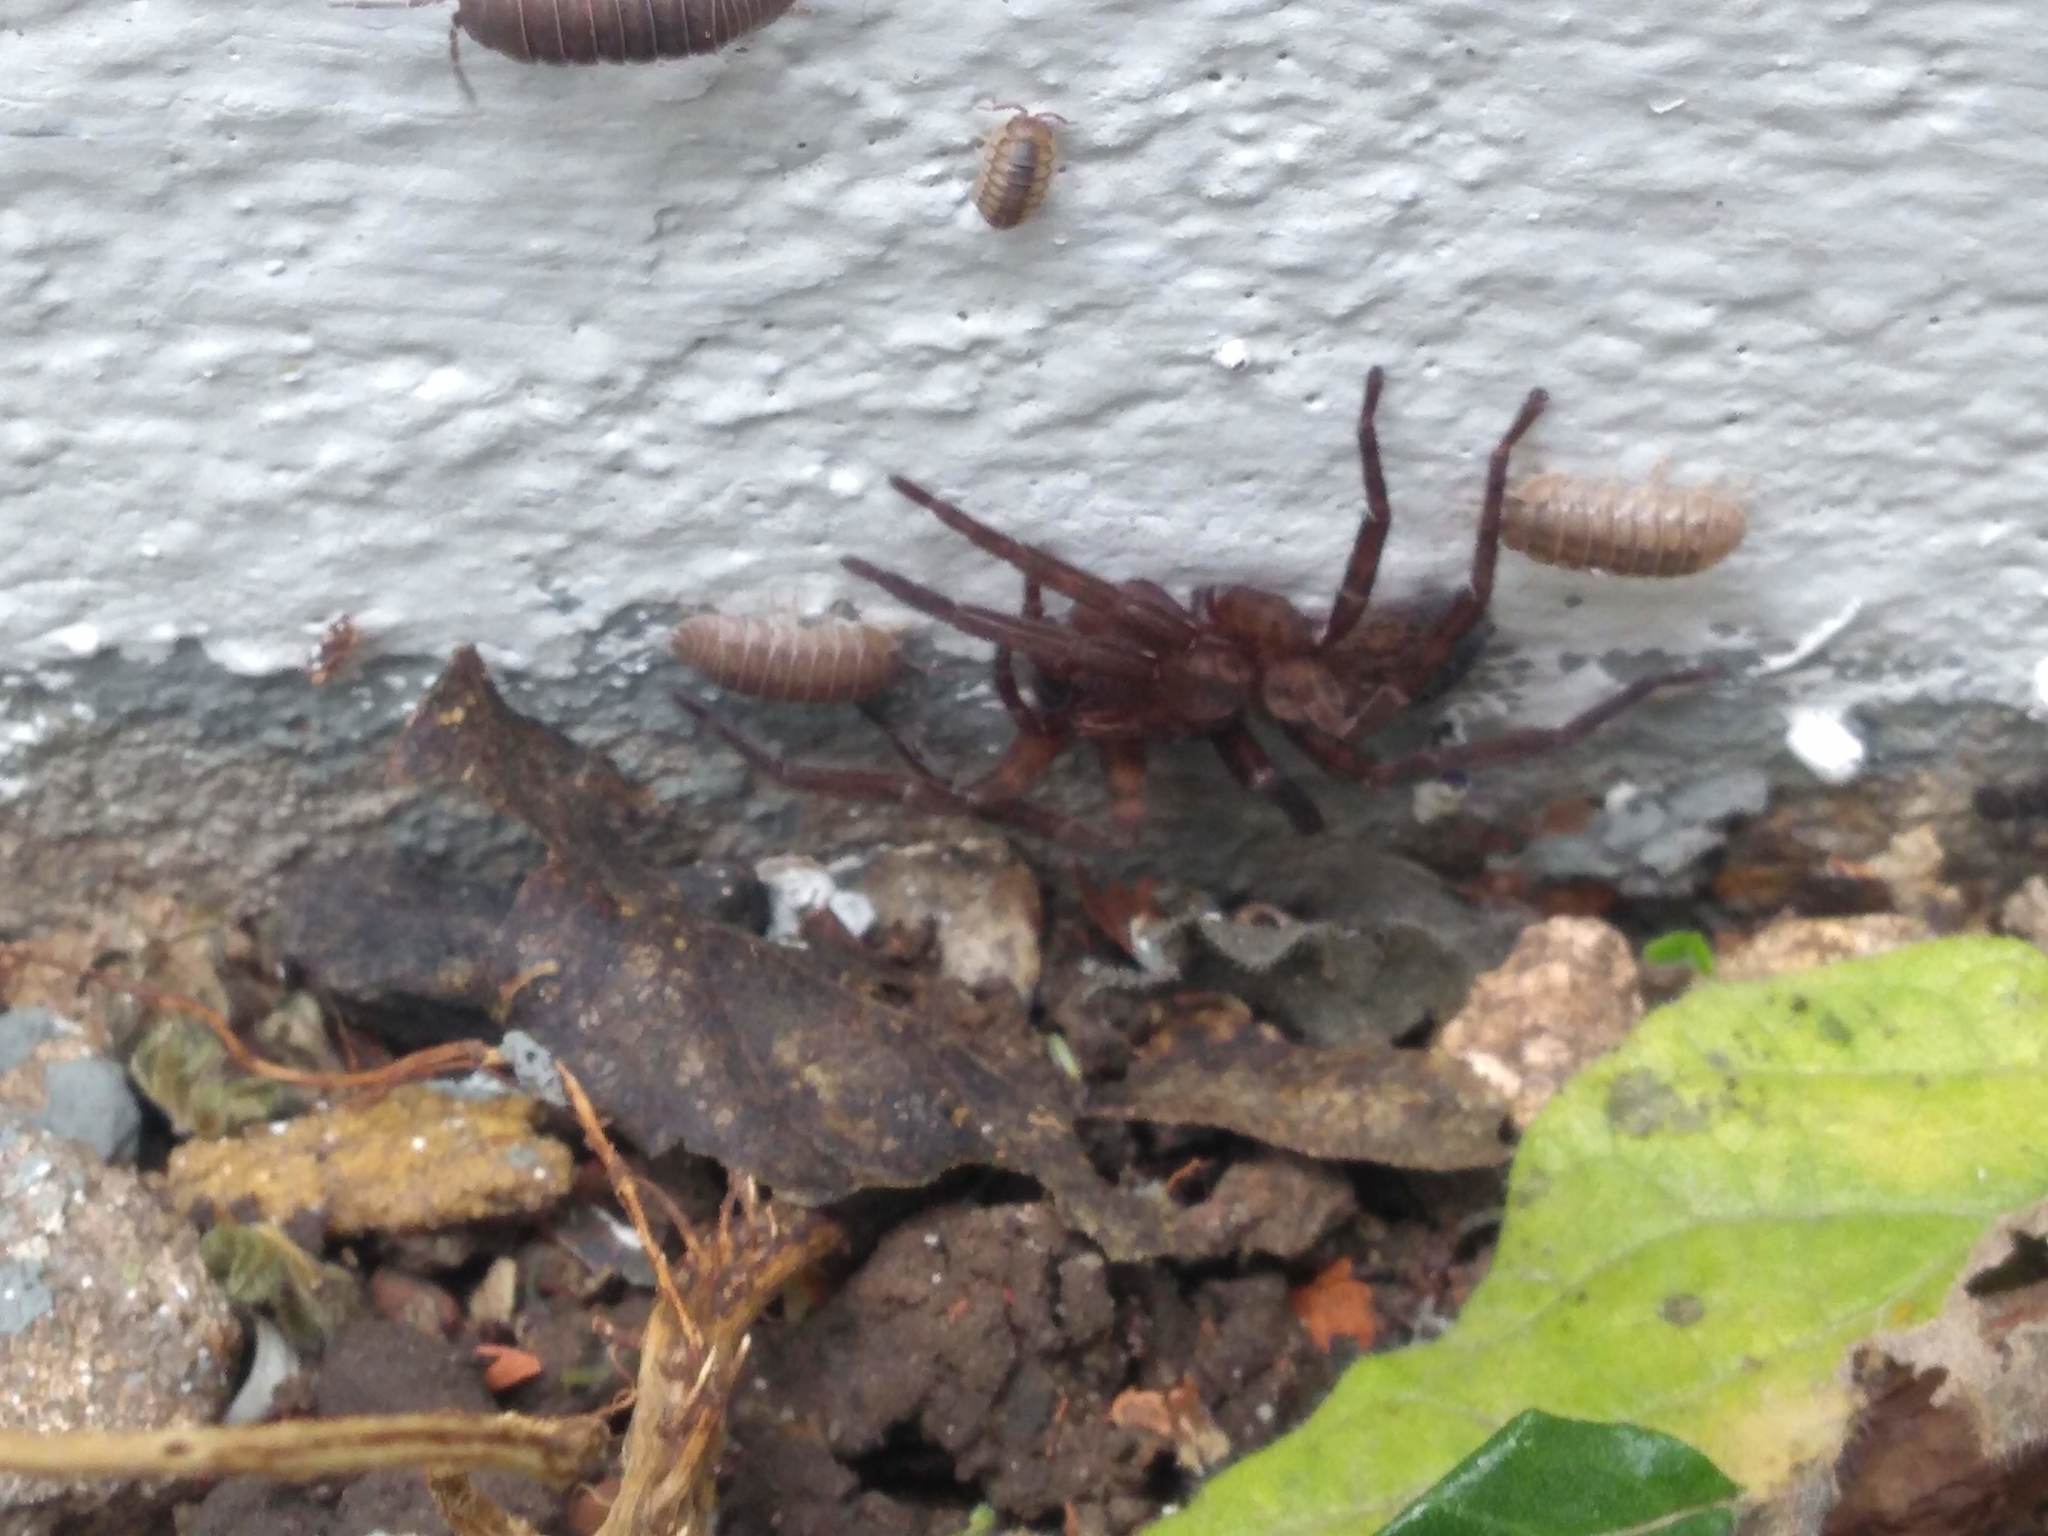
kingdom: Animalia
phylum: Arthropoda
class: Arachnida
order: Araneae
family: Ctenidae
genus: Asthenoctenus
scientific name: Asthenoctenus borellii
